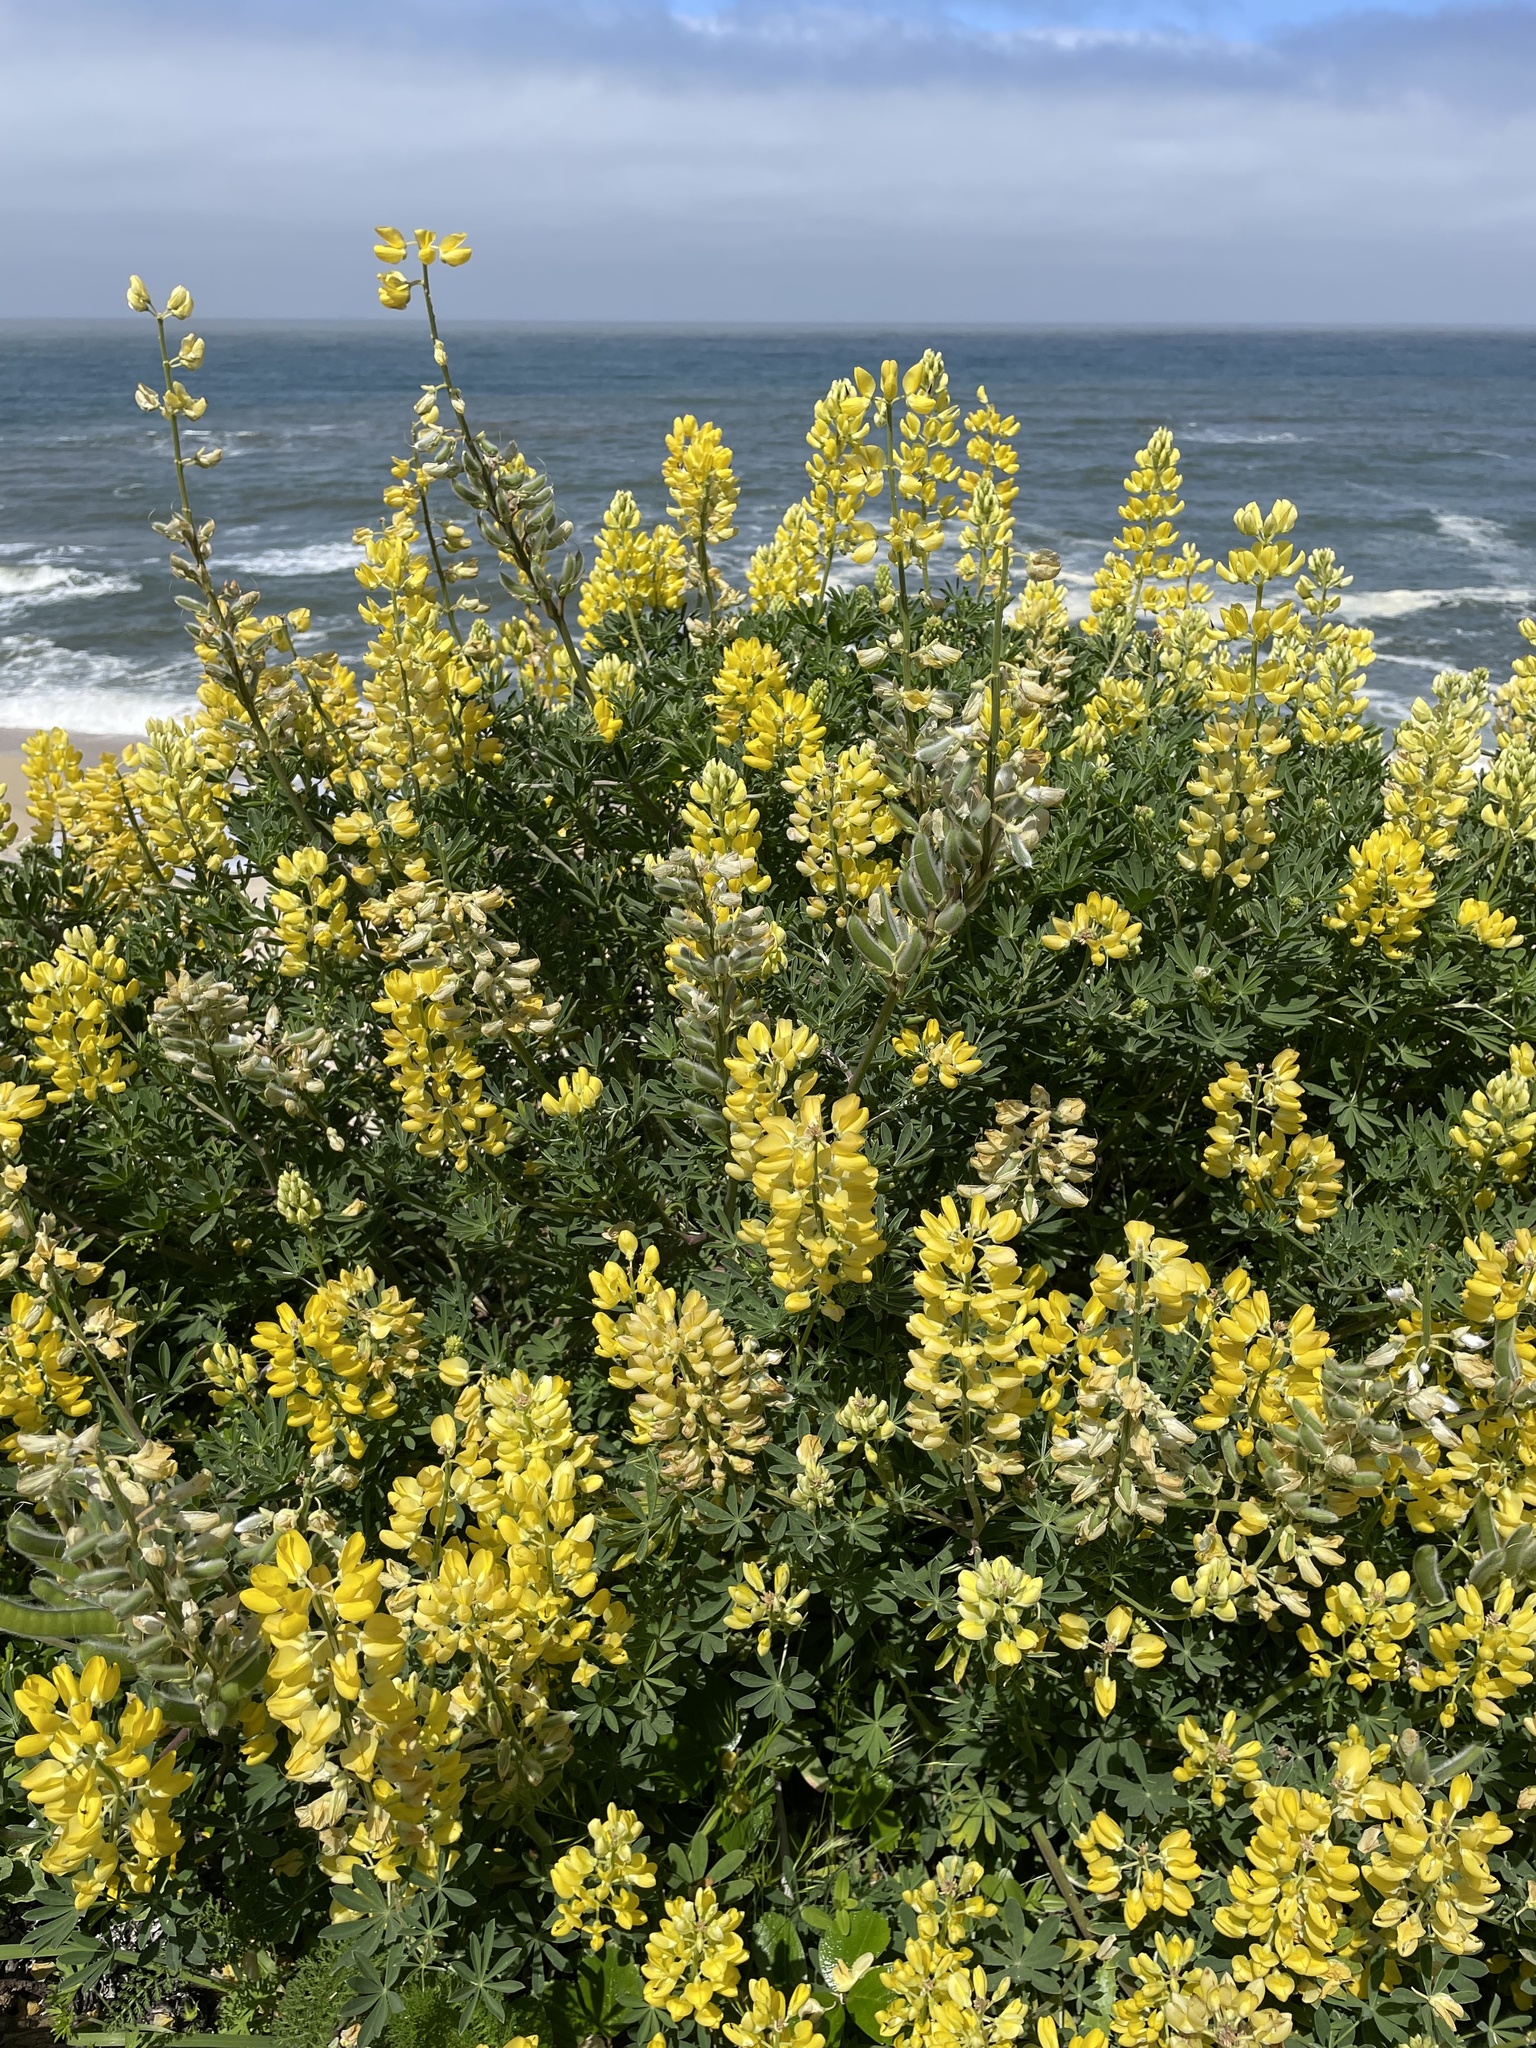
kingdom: Plantae
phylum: Tracheophyta
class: Magnoliopsida
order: Fabales
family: Fabaceae
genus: Lupinus
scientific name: Lupinus arboreus
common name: Yellow bush lupine
